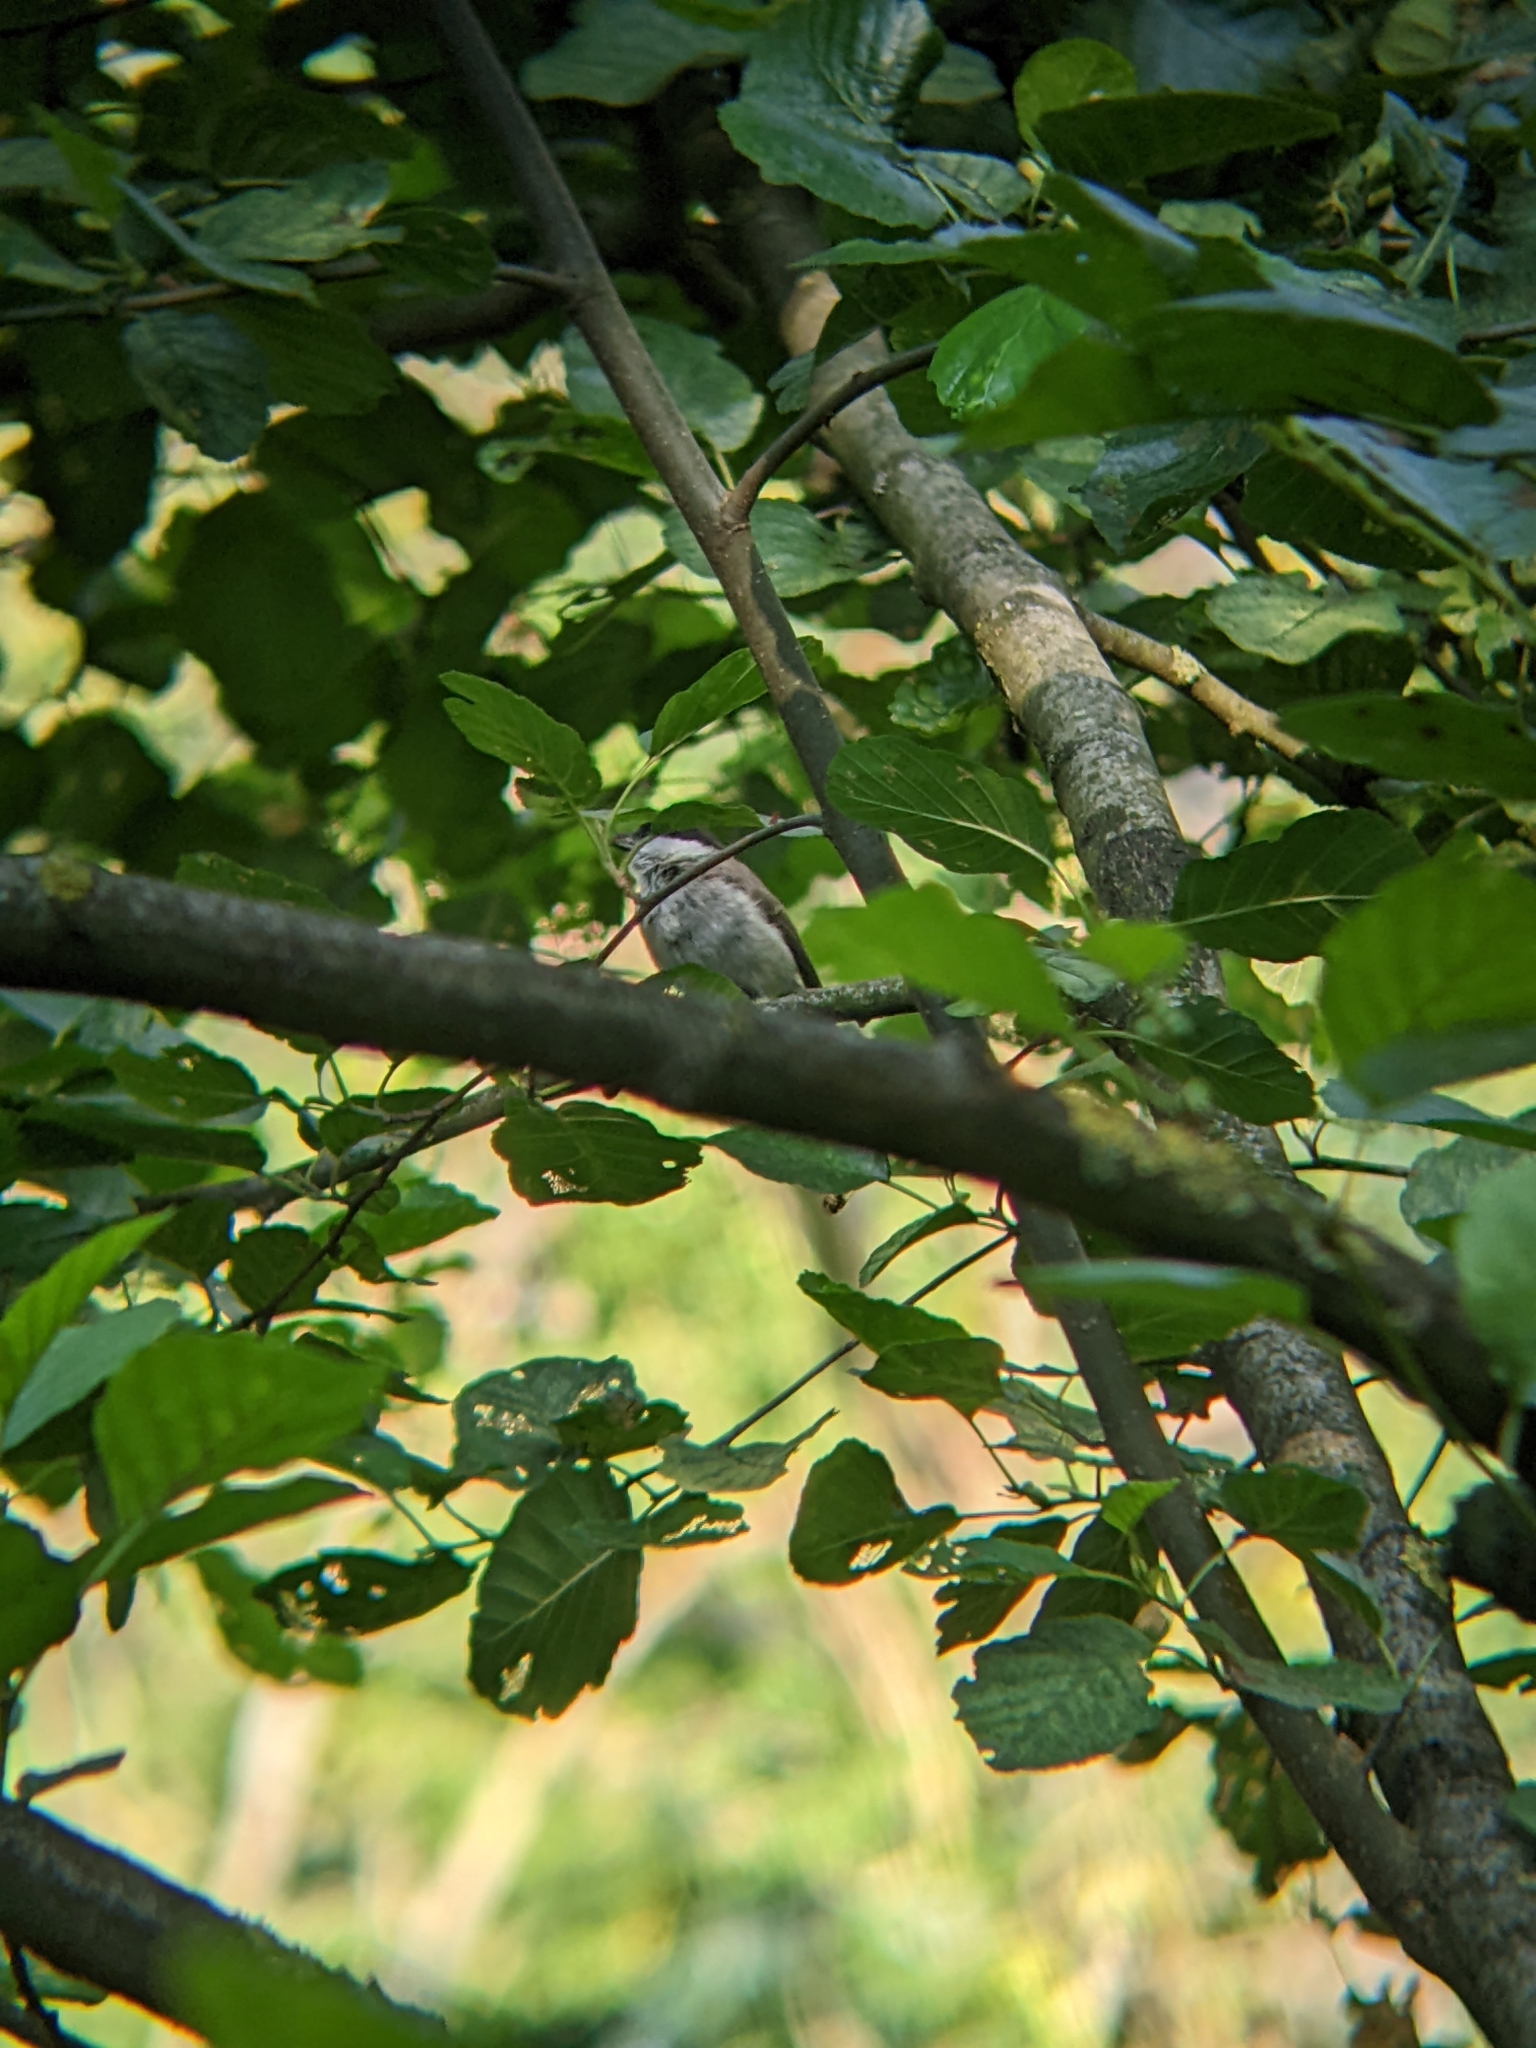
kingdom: Animalia
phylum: Chordata
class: Aves
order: Passeriformes
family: Paridae
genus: Poecile
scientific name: Poecile palustris
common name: Marsh tit
